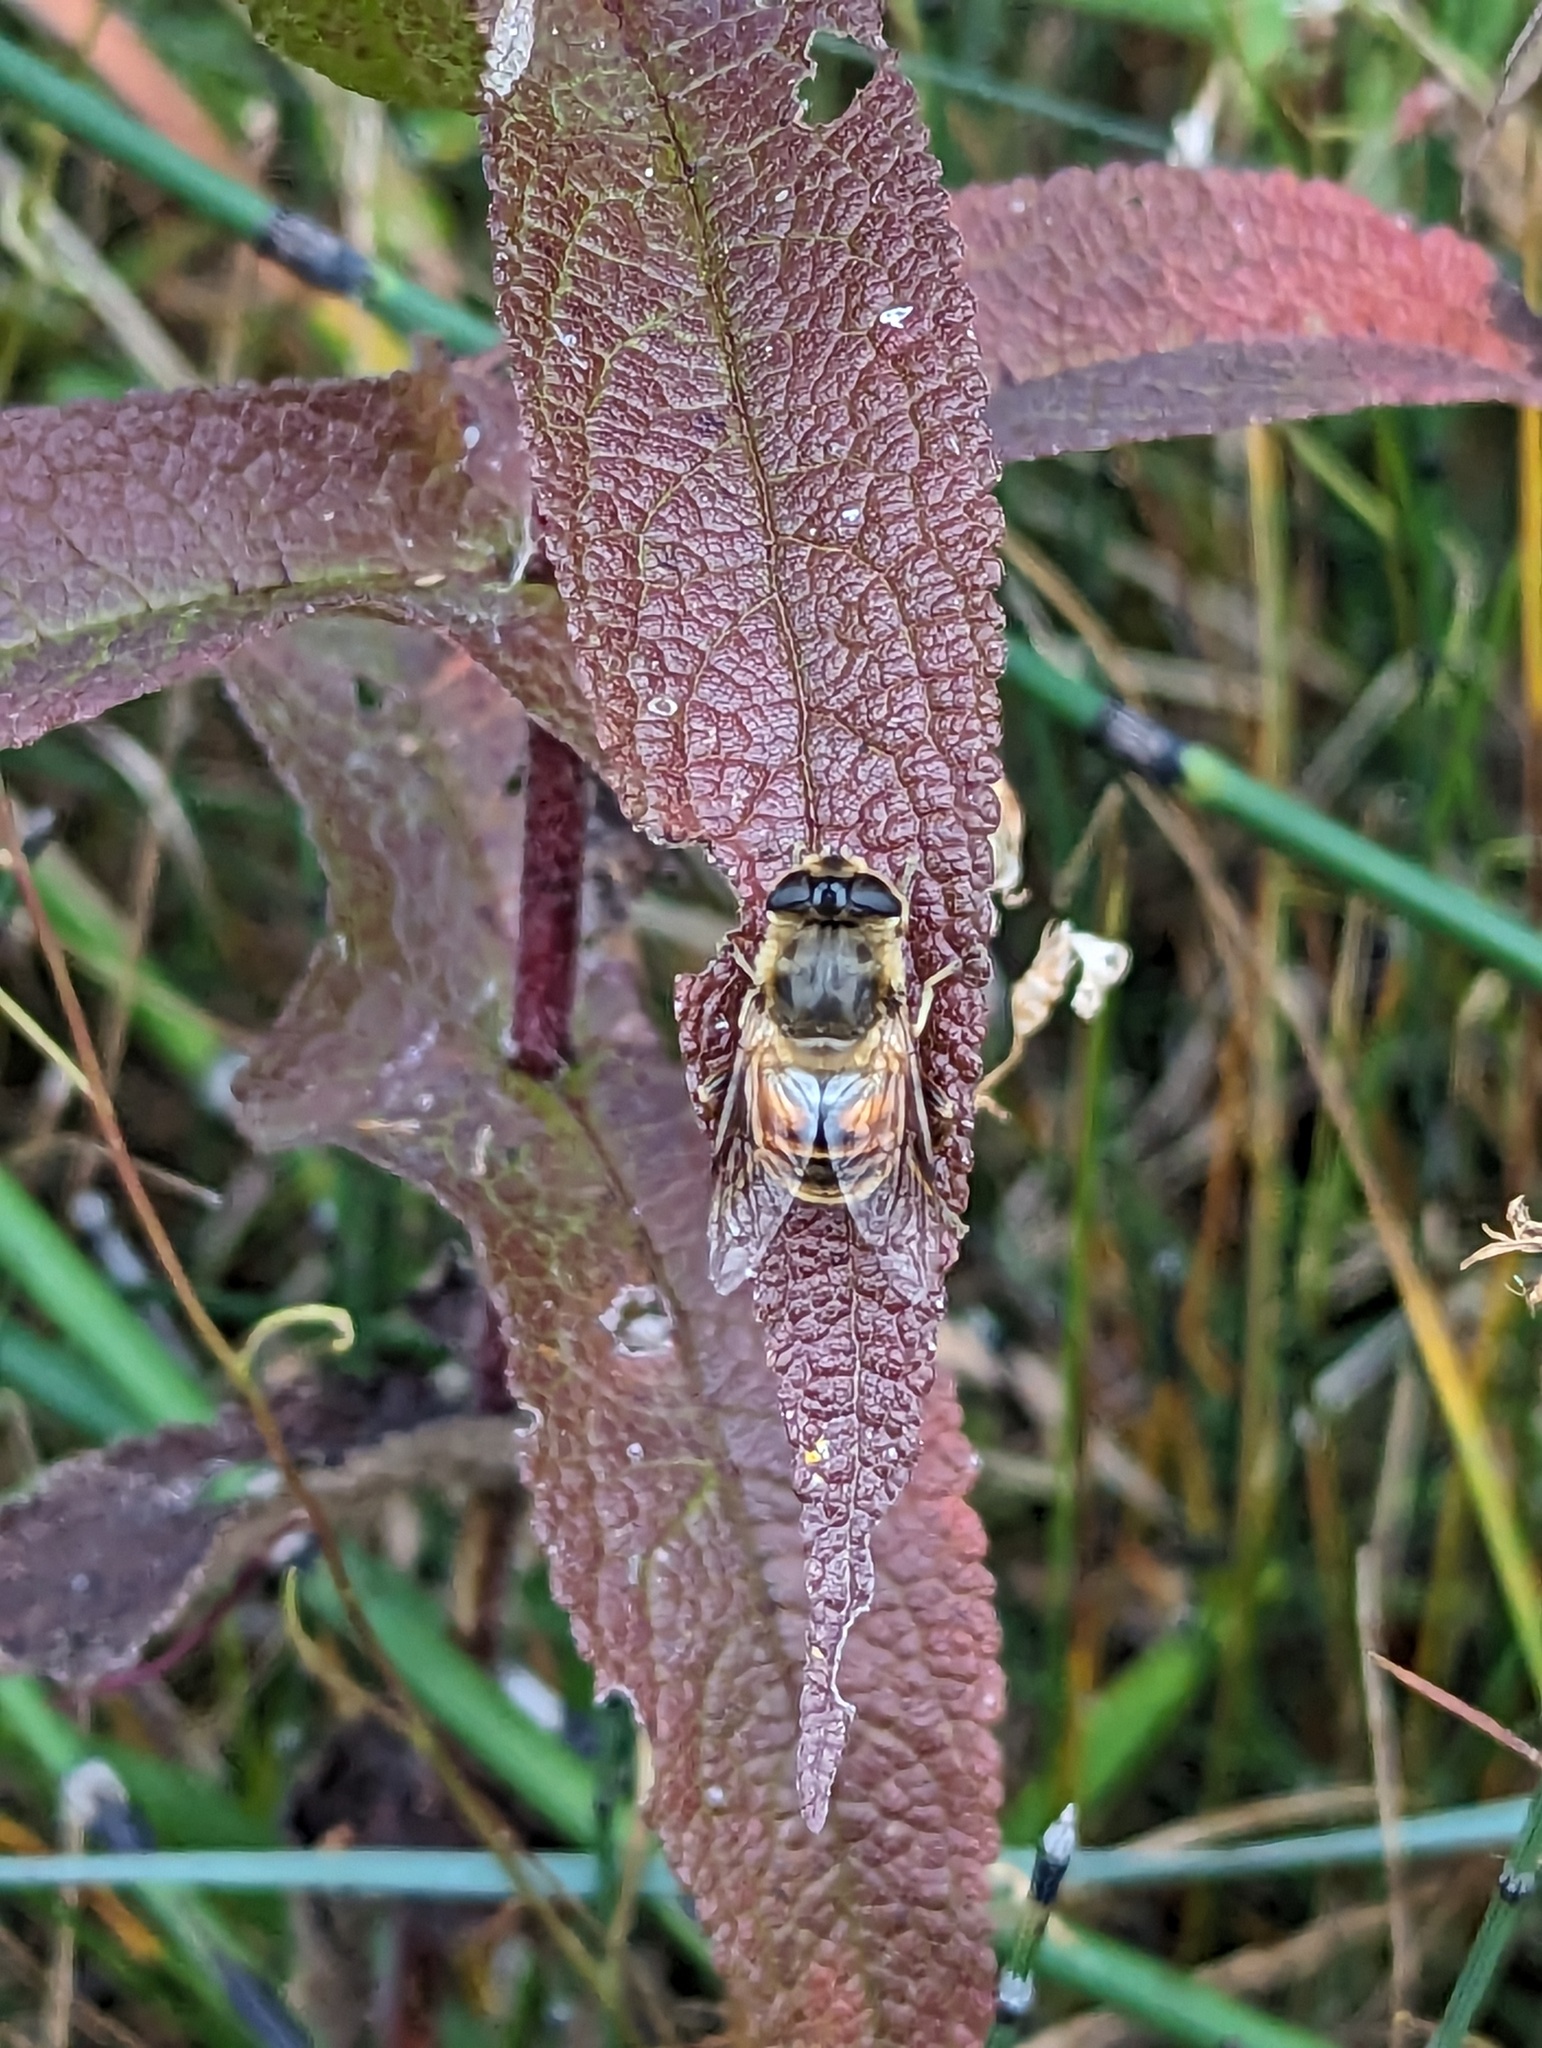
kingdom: Animalia
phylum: Arthropoda
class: Insecta
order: Diptera
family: Syrphidae
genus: Eristalis
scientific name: Eristalis tenax
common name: Drone fly
